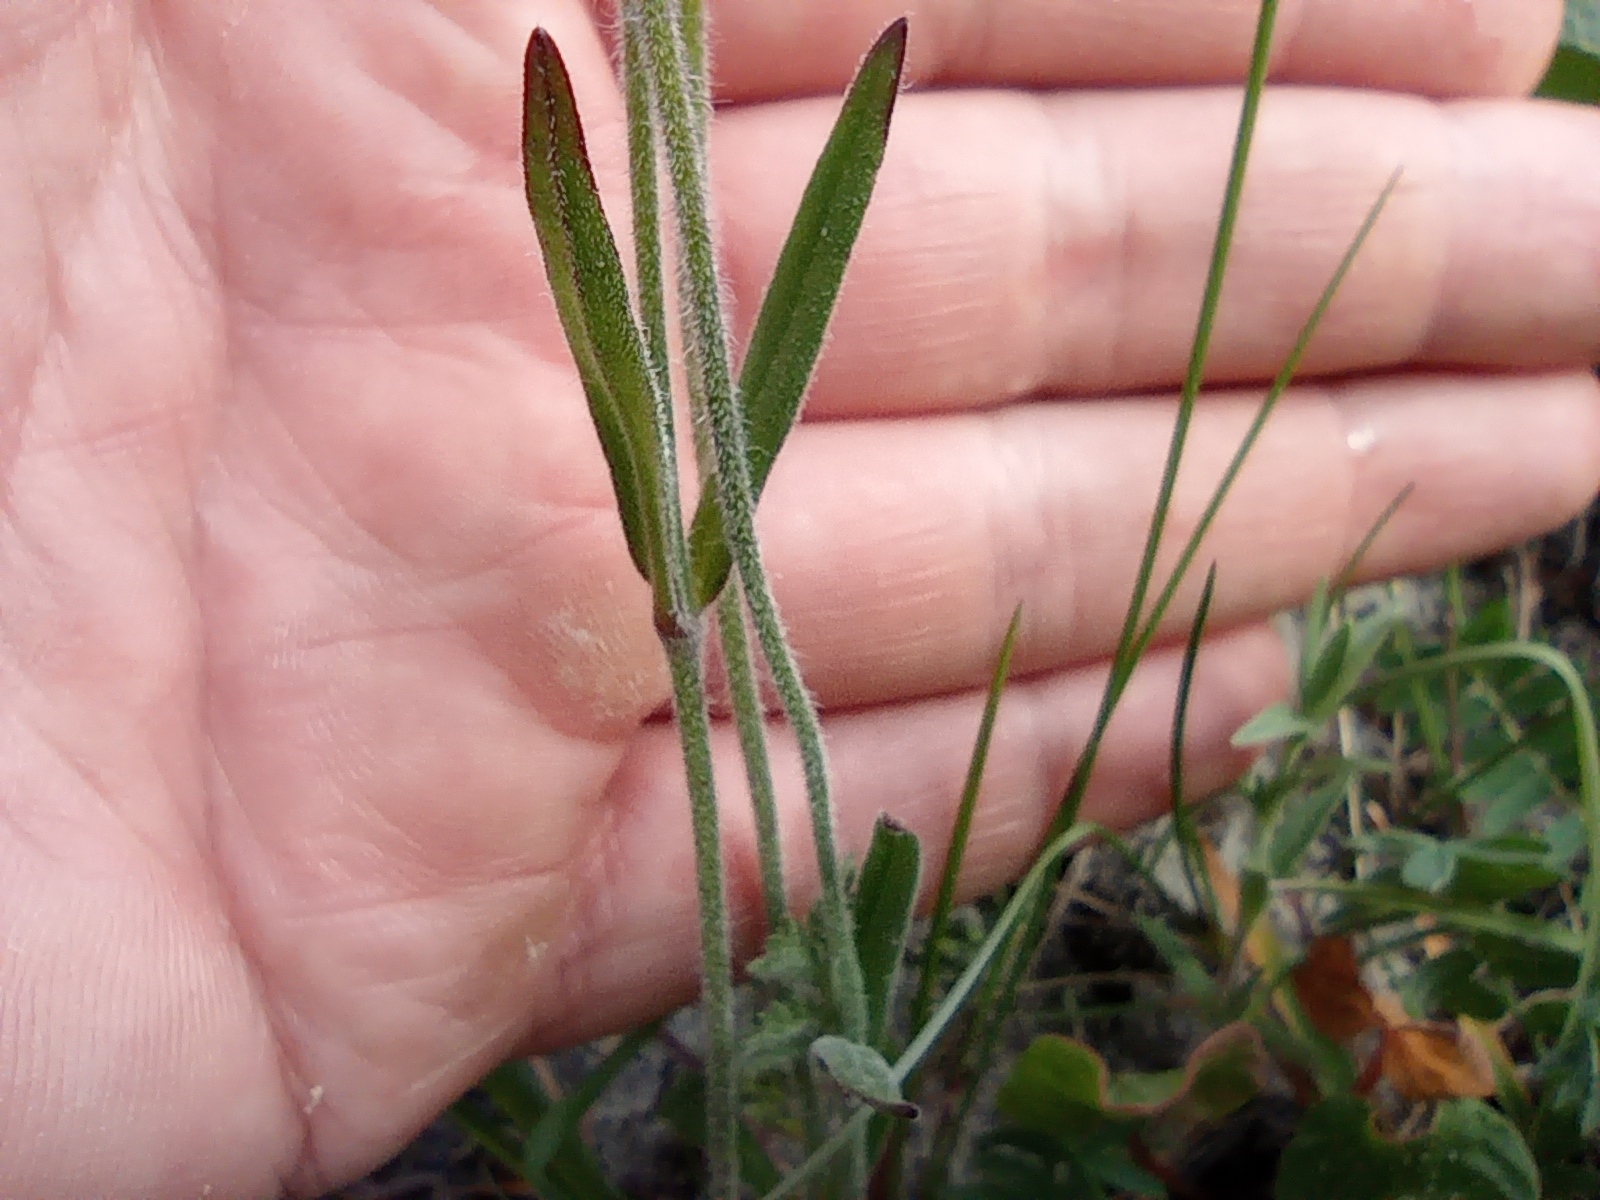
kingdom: Plantae
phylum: Tracheophyta
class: Magnoliopsida
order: Caryophyllales
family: Caryophyllaceae
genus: Silene
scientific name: Silene involucrata
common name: Greater arctic campion
